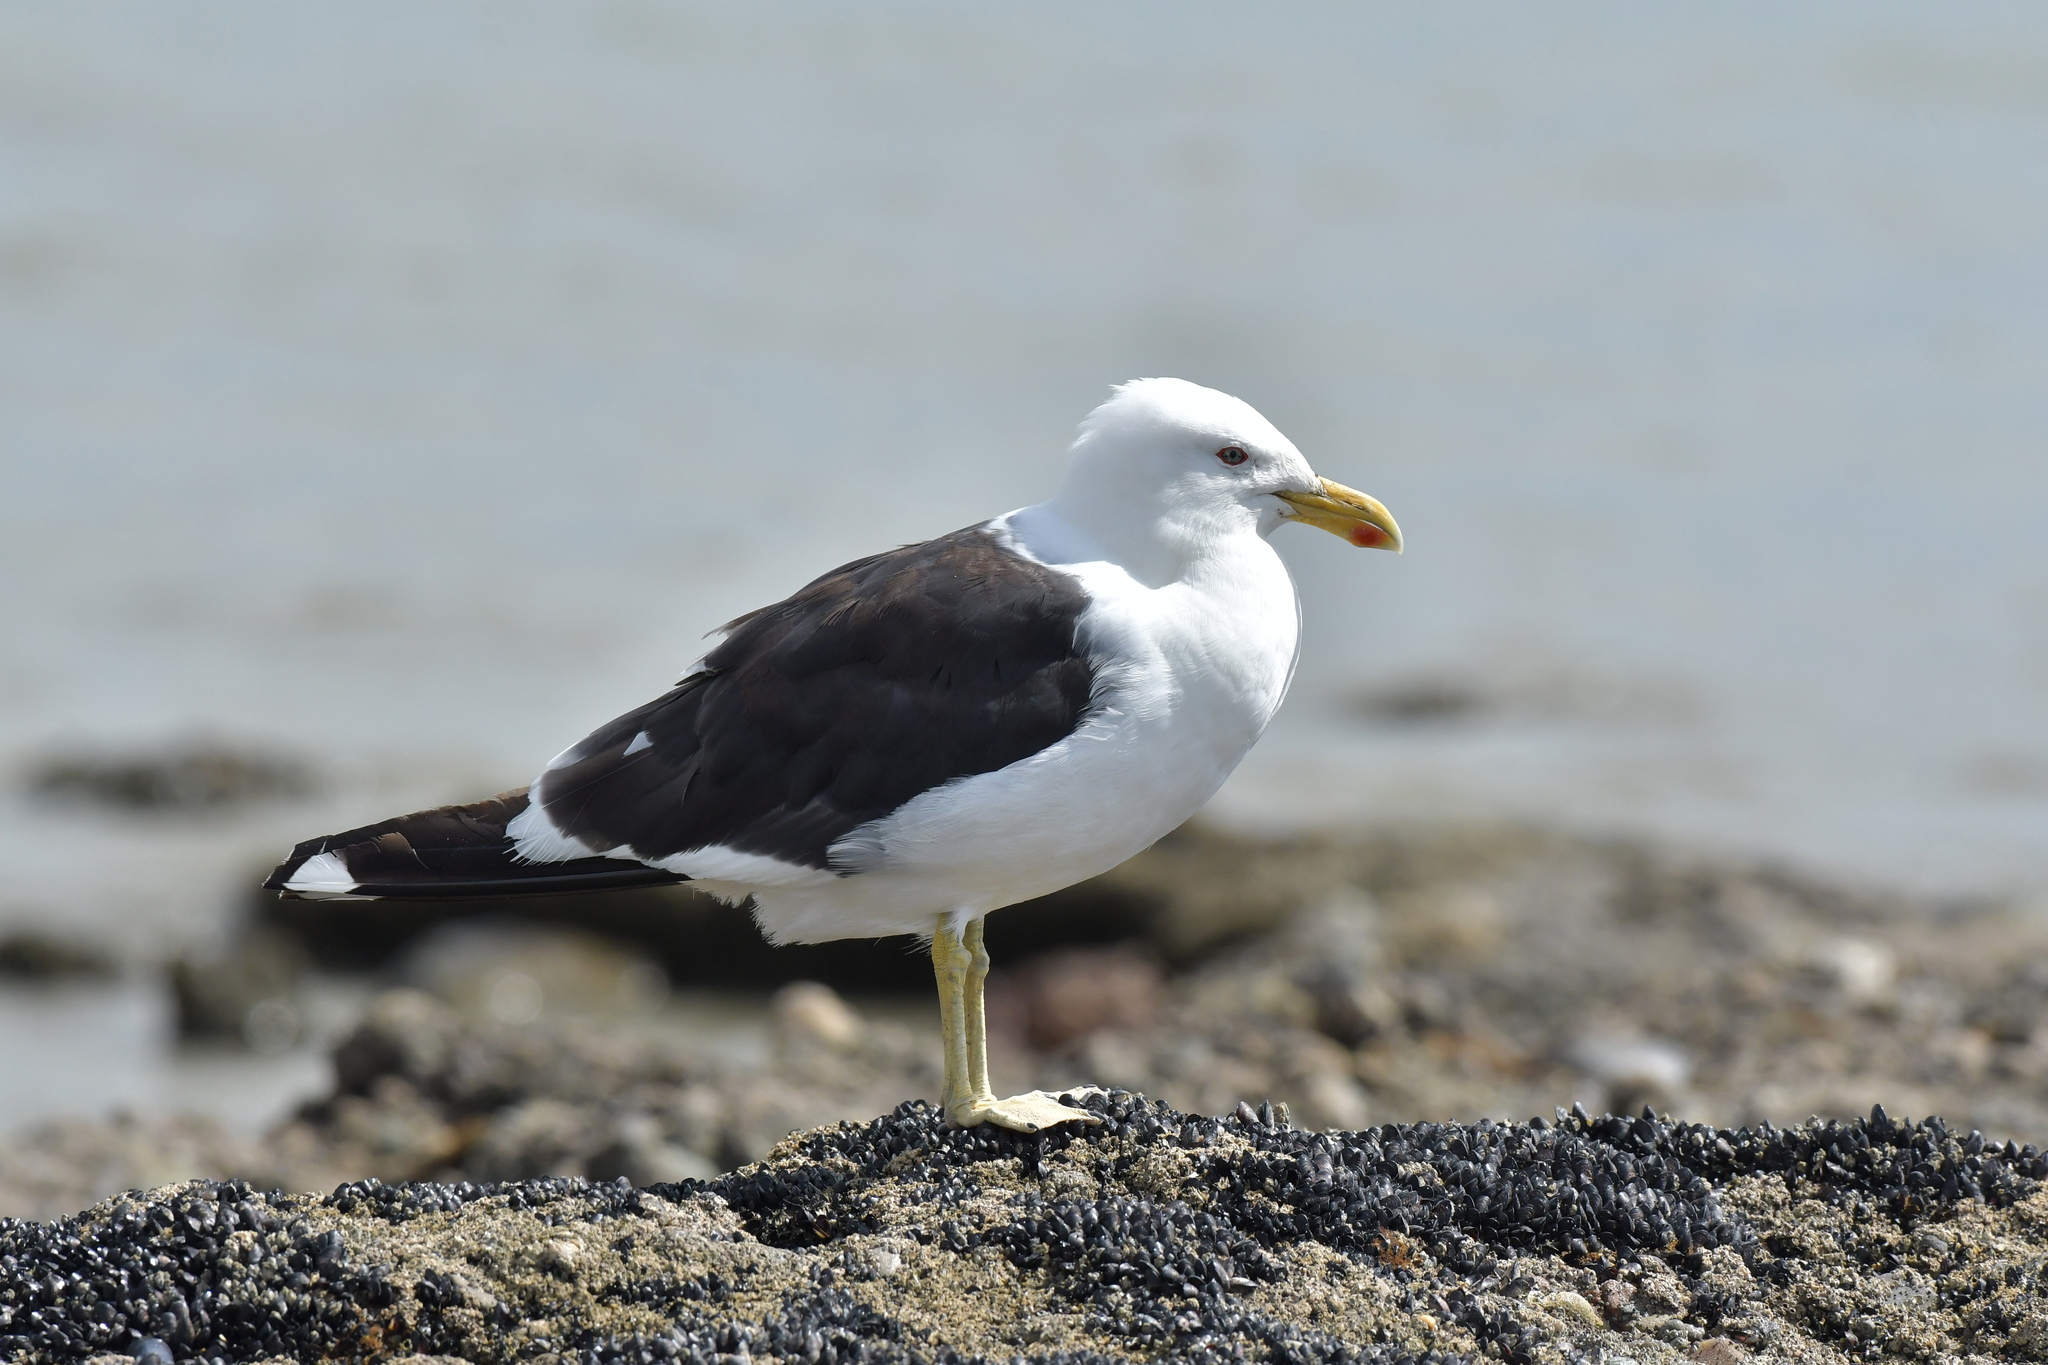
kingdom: Animalia
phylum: Chordata
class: Aves
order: Charadriiformes
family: Laridae
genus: Larus
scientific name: Larus dominicanus
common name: Kelp gull
